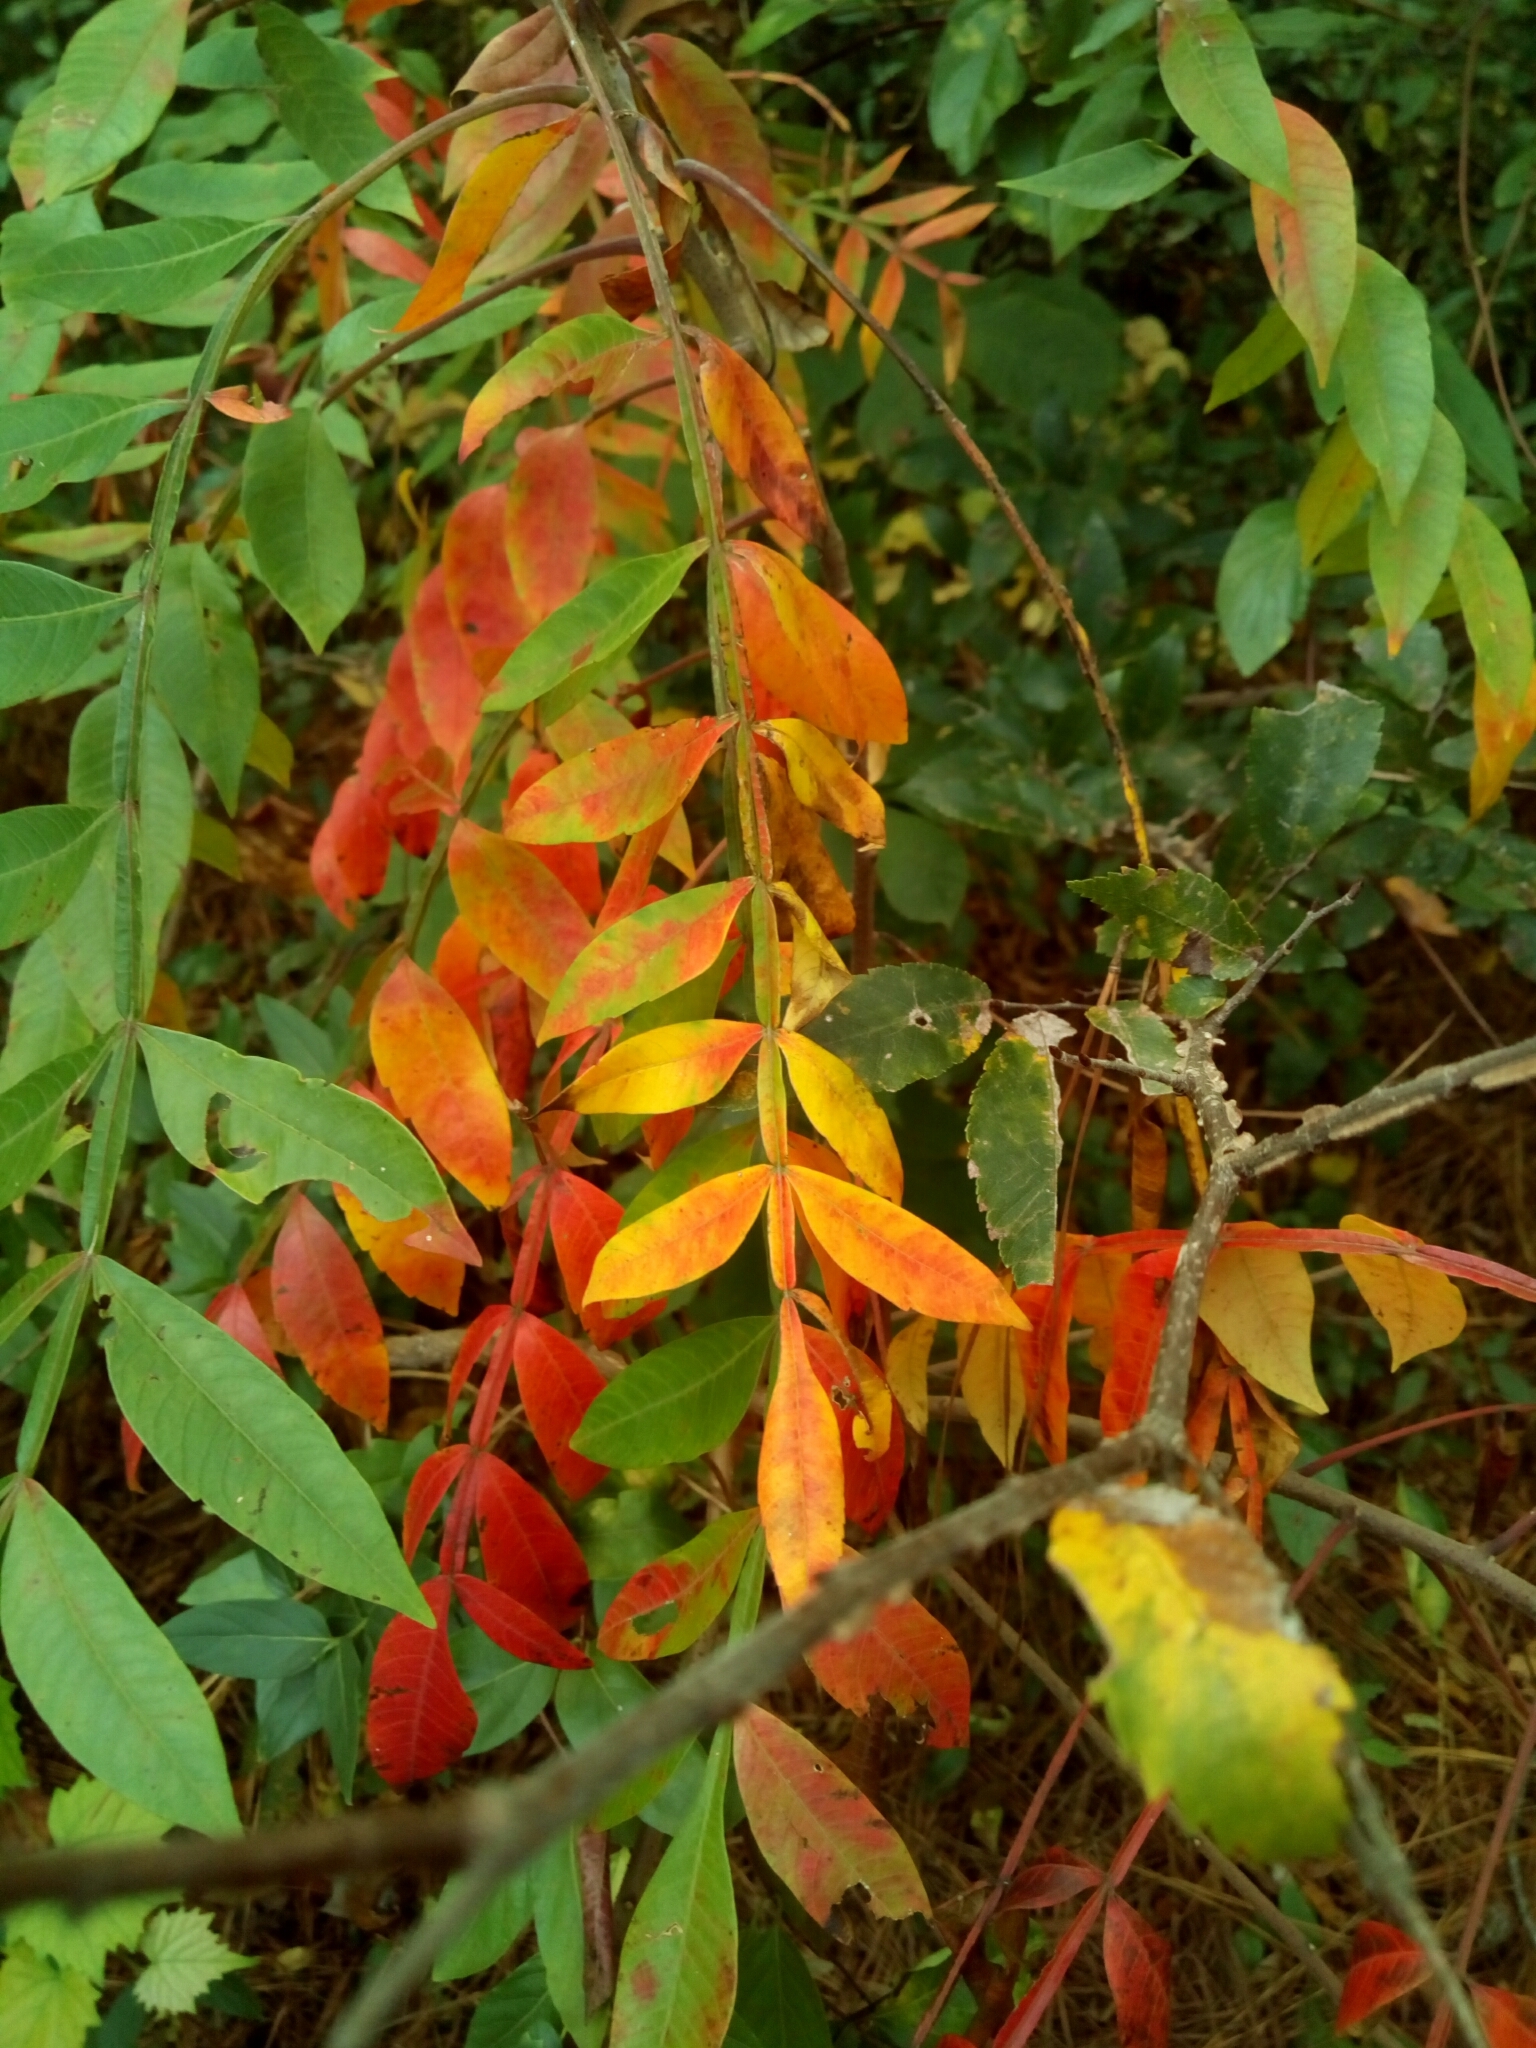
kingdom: Plantae
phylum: Tracheophyta
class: Magnoliopsida
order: Sapindales
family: Anacardiaceae
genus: Rhus
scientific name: Rhus copallina
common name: Shining sumac
